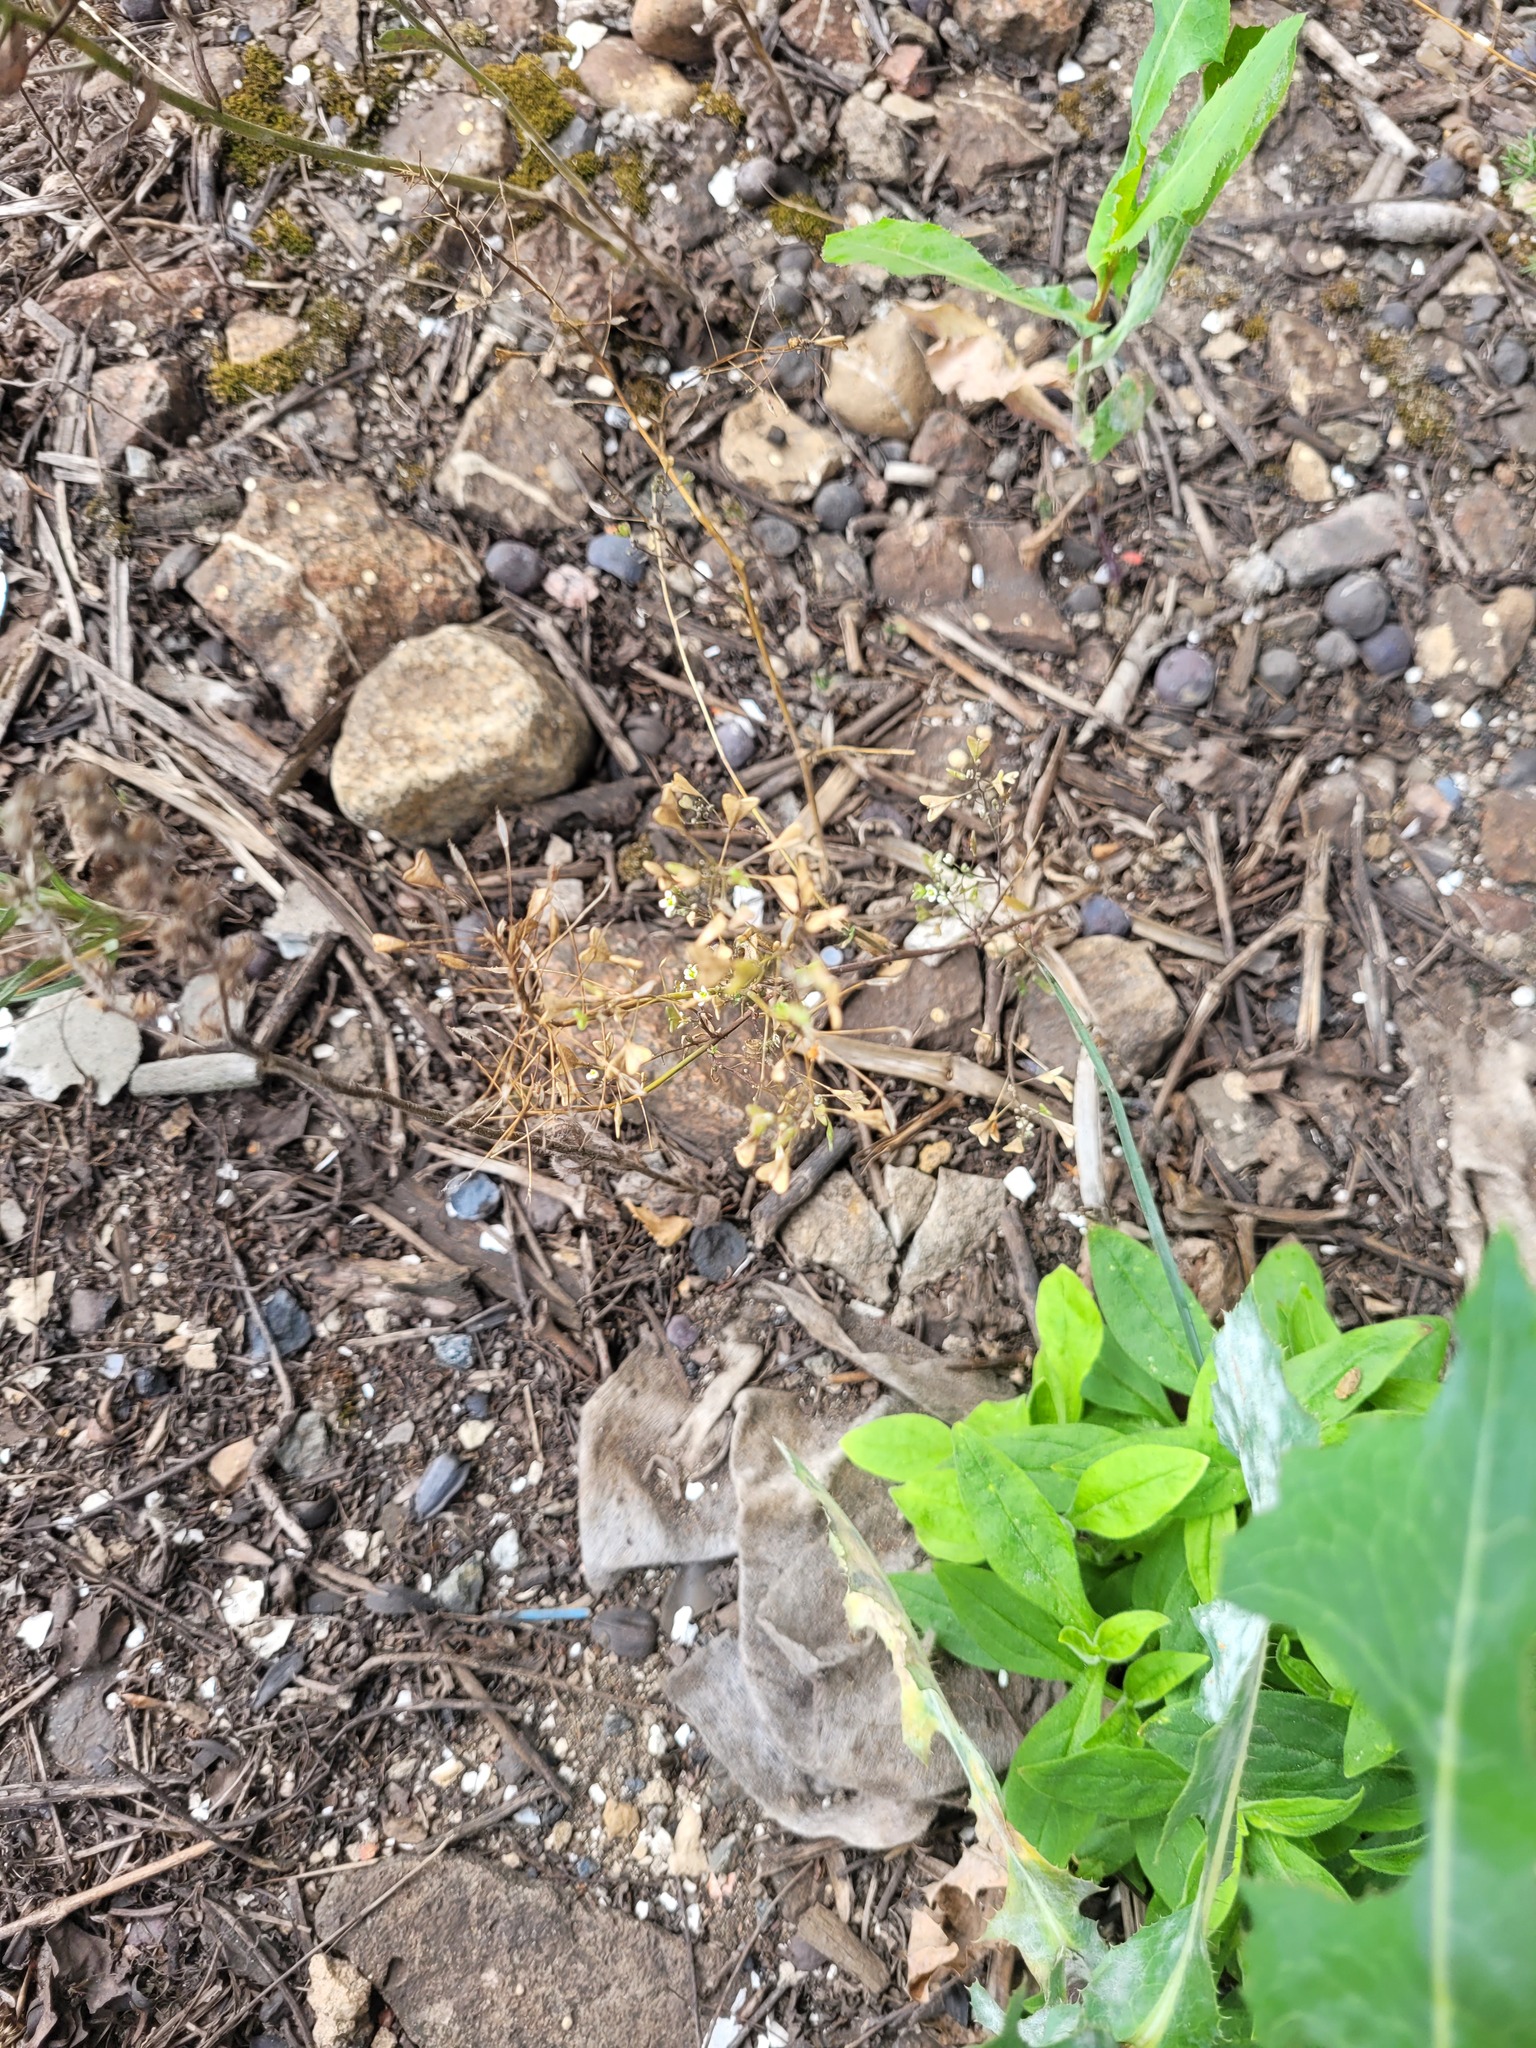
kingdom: Plantae
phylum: Tracheophyta
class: Magnoliopsida
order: Brassicales
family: Brassicaceae
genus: Capsella
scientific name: Capsella bursa-pastoris
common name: Shepherd's purse
